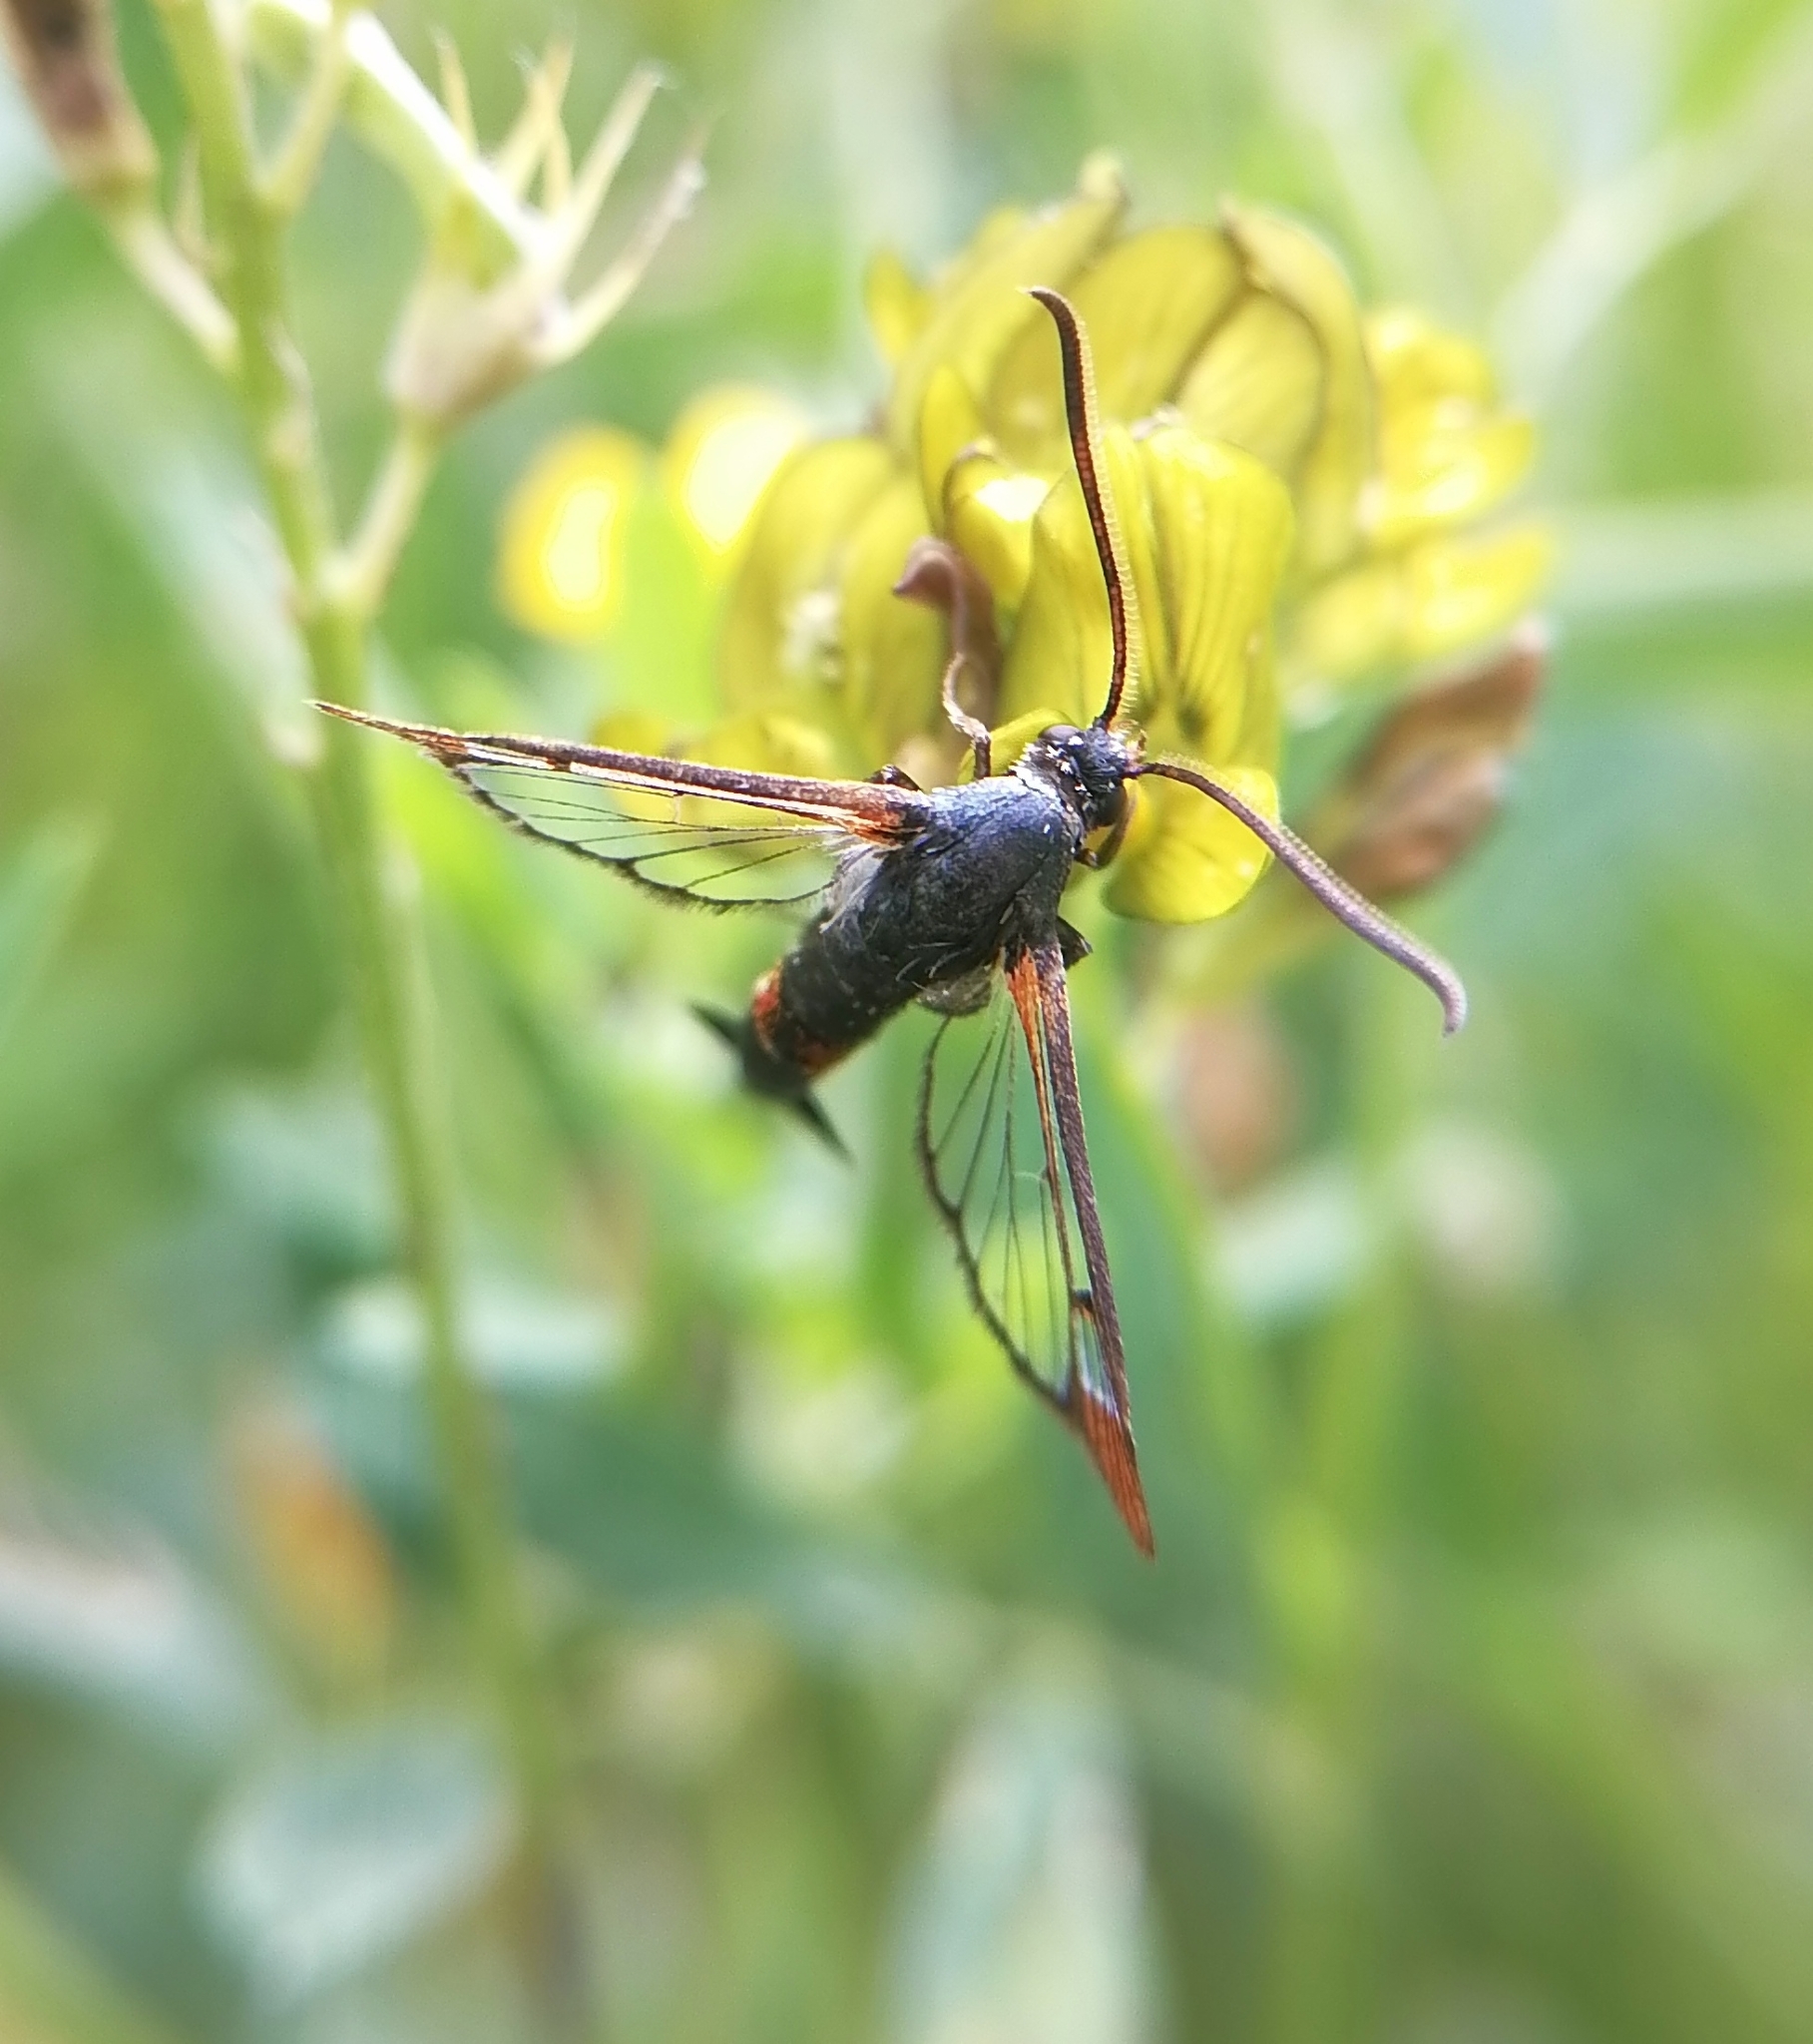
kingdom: Animalia
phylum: Arthropoda
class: Insecta
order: Lepidoptera
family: Sesiidae
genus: Synanthedon
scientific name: Synanthedon formicaeformis
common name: Red-tipped clearwing
